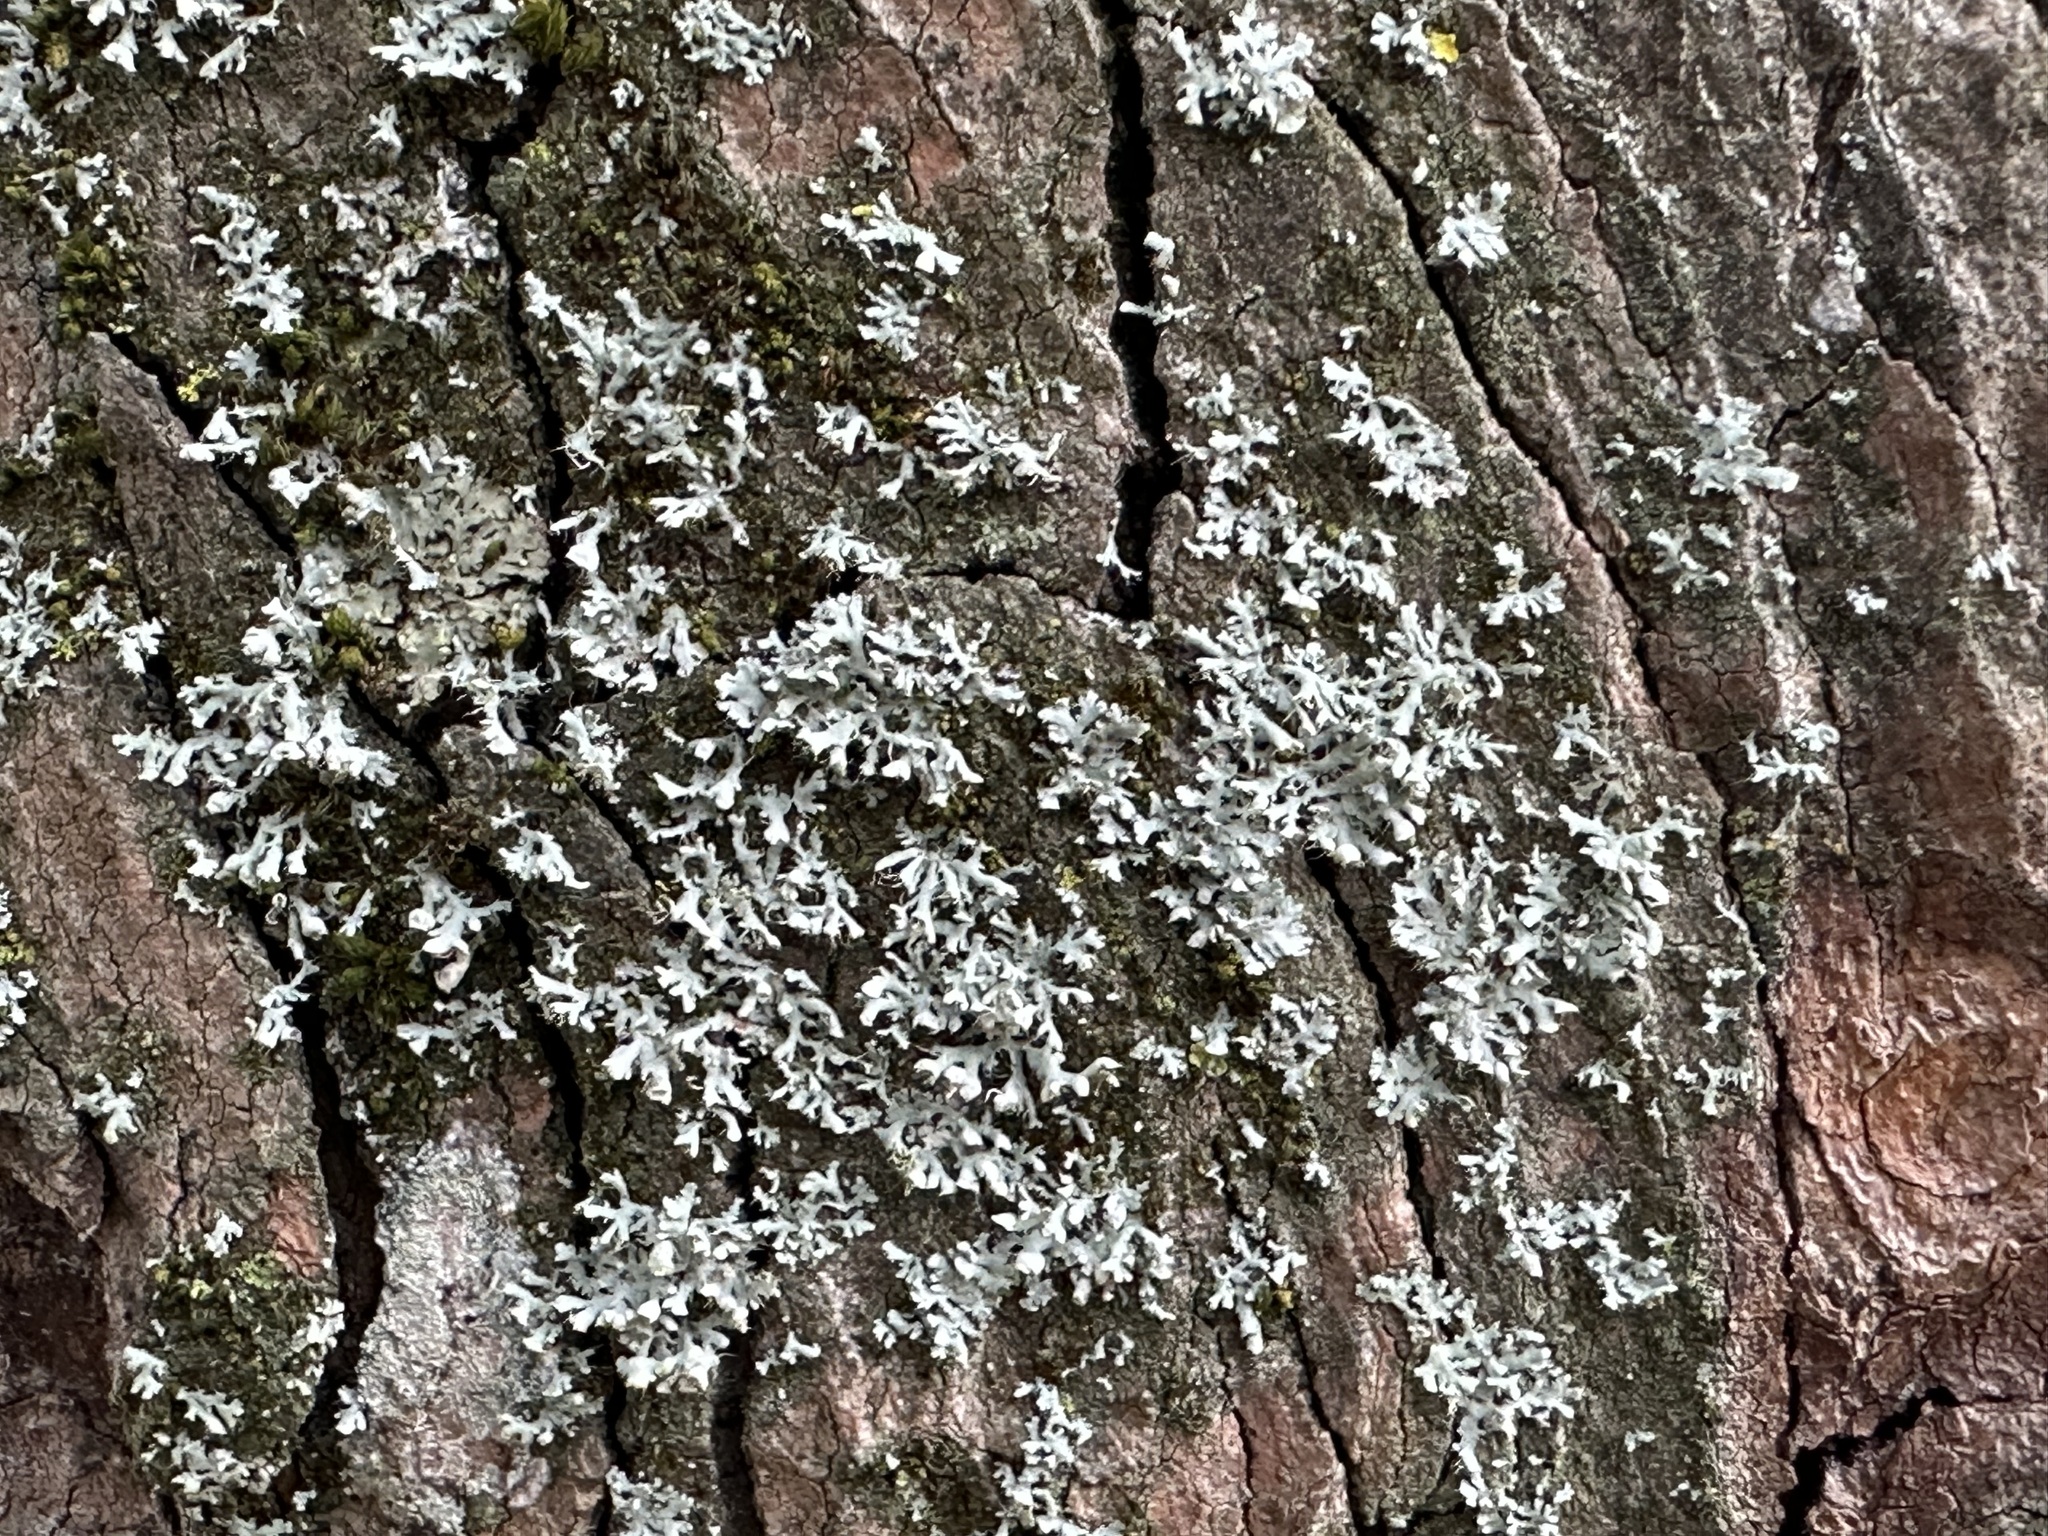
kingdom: Fungi
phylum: Ascomycota
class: Lecanoromycetes
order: Caliciales
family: Physciaceae
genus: Physcia
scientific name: Physcia adscendens
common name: Hooded rosette lichen
